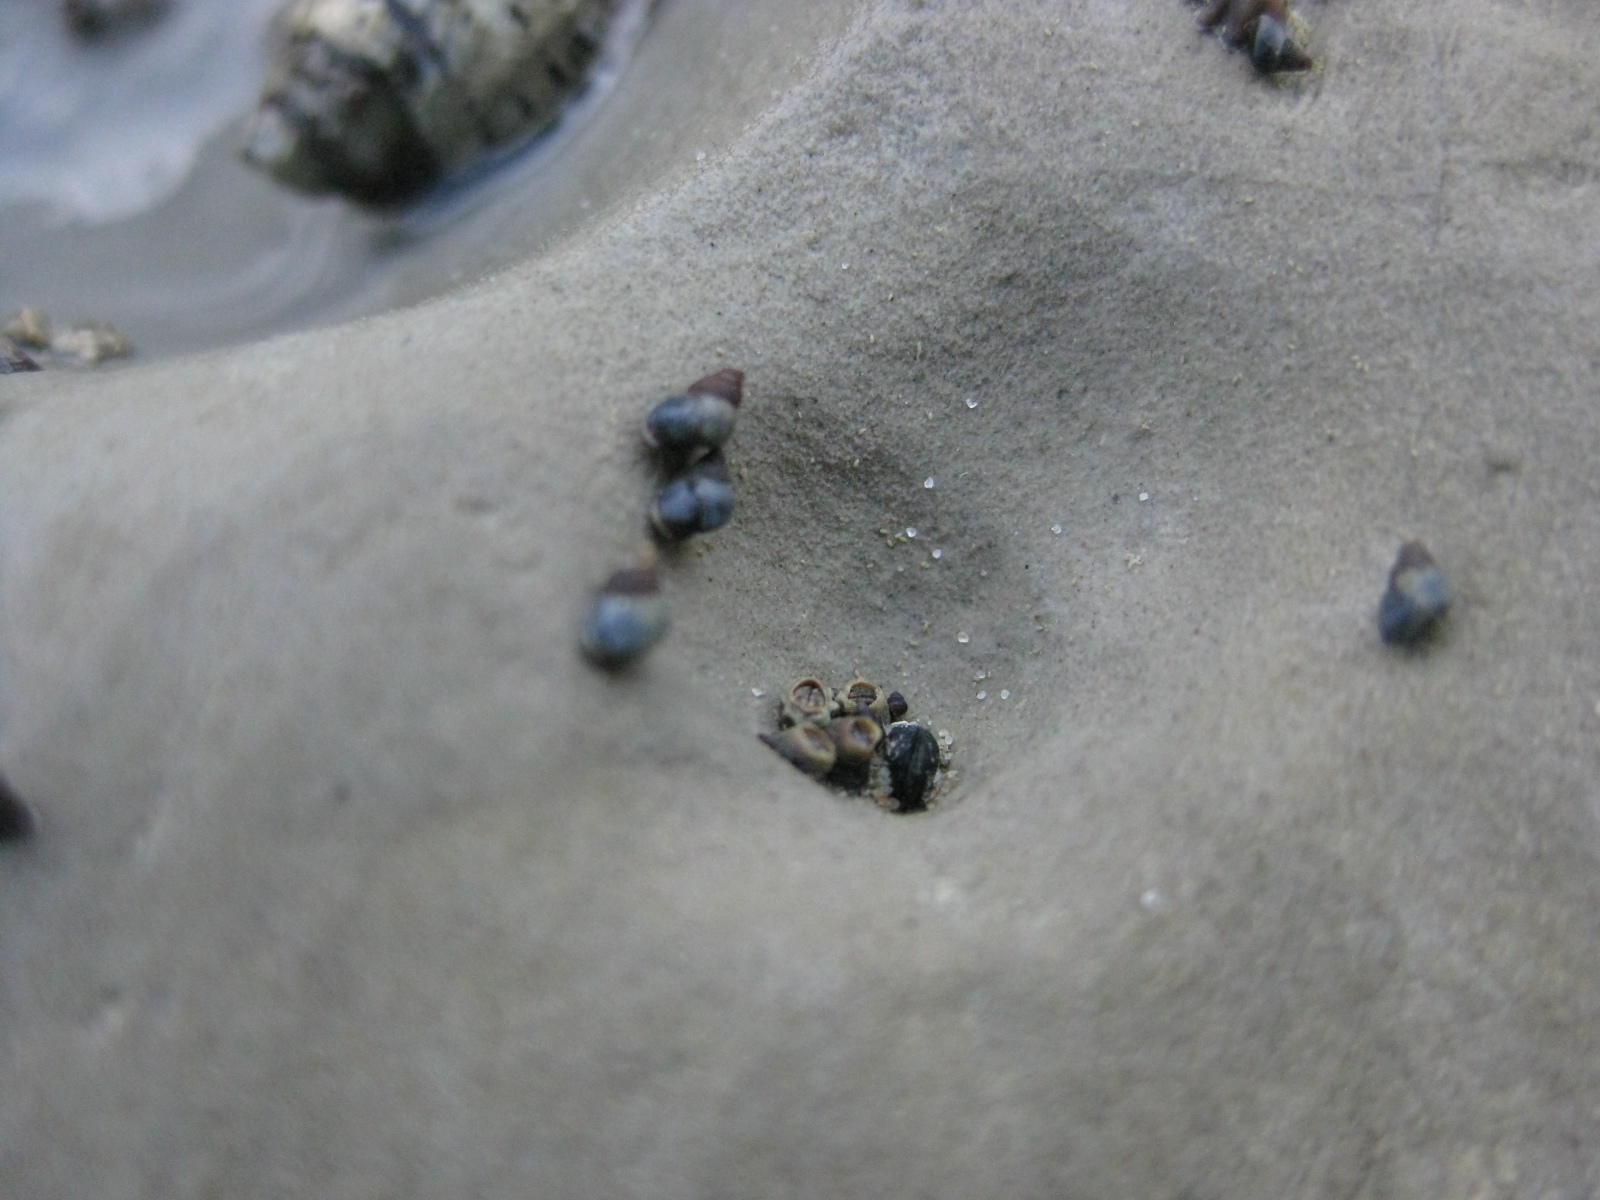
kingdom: Animalia
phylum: Mollusca
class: Gastropoda
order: Littorinimorpha
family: Littorinidae
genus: Austrolittorina
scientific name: Austrolittorina antipodum
